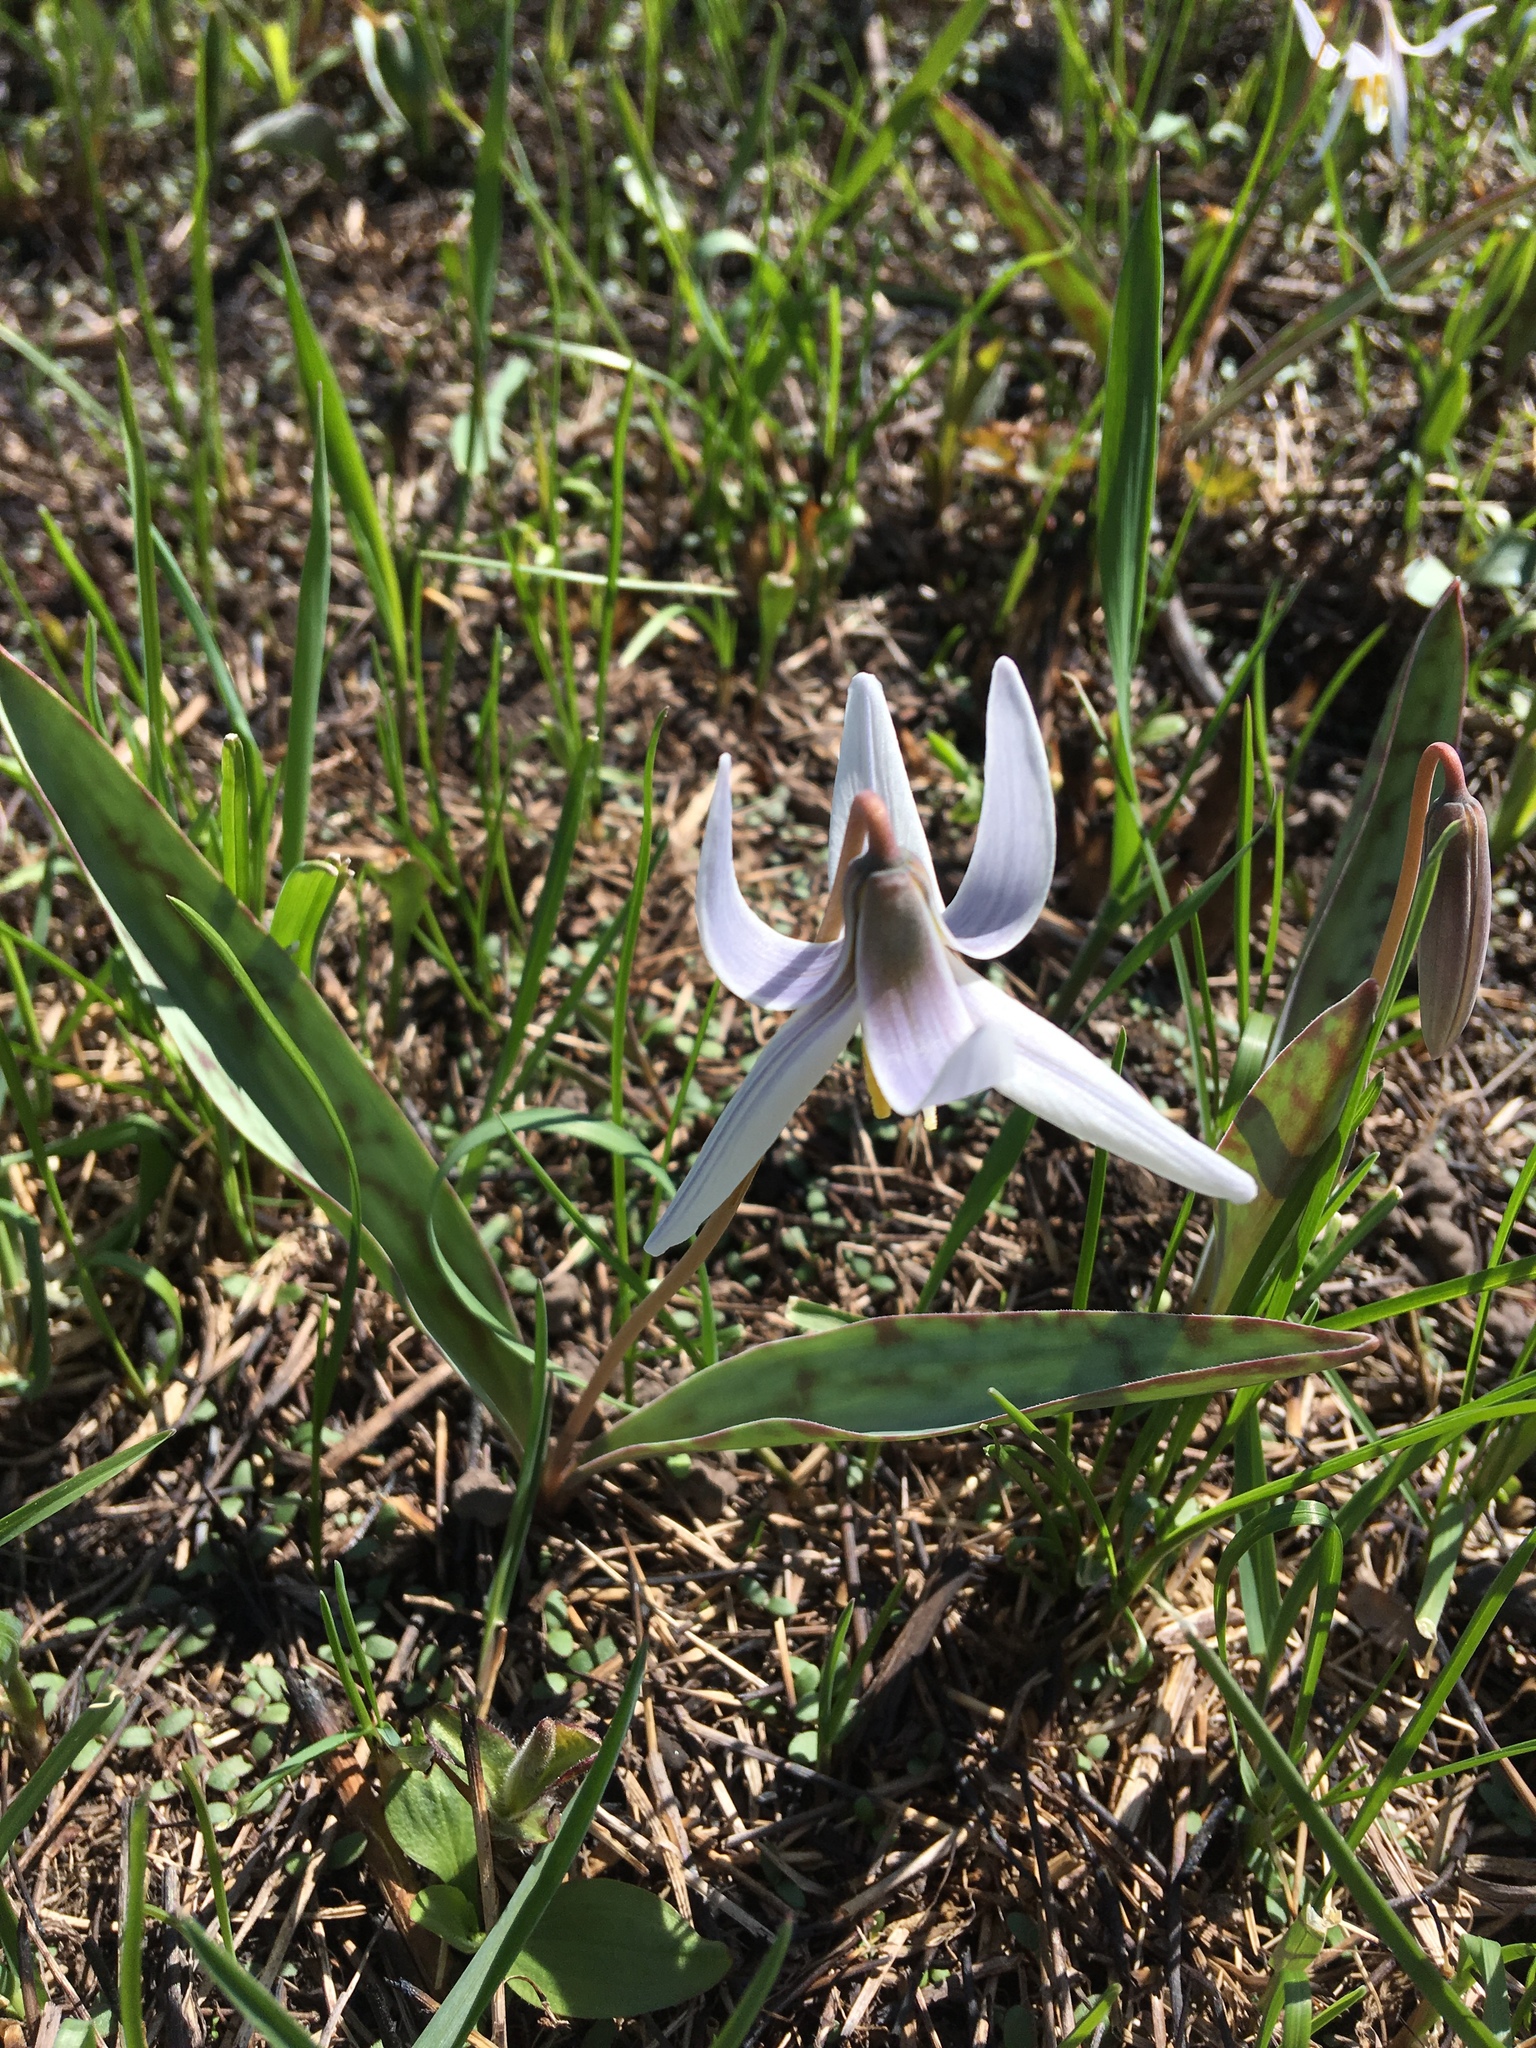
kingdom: Plantae
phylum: Tracheophyta
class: Liliopsida
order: Liliales
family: Liliaceae
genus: Erythronium
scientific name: Erythronium albidum
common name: White trout-lily
